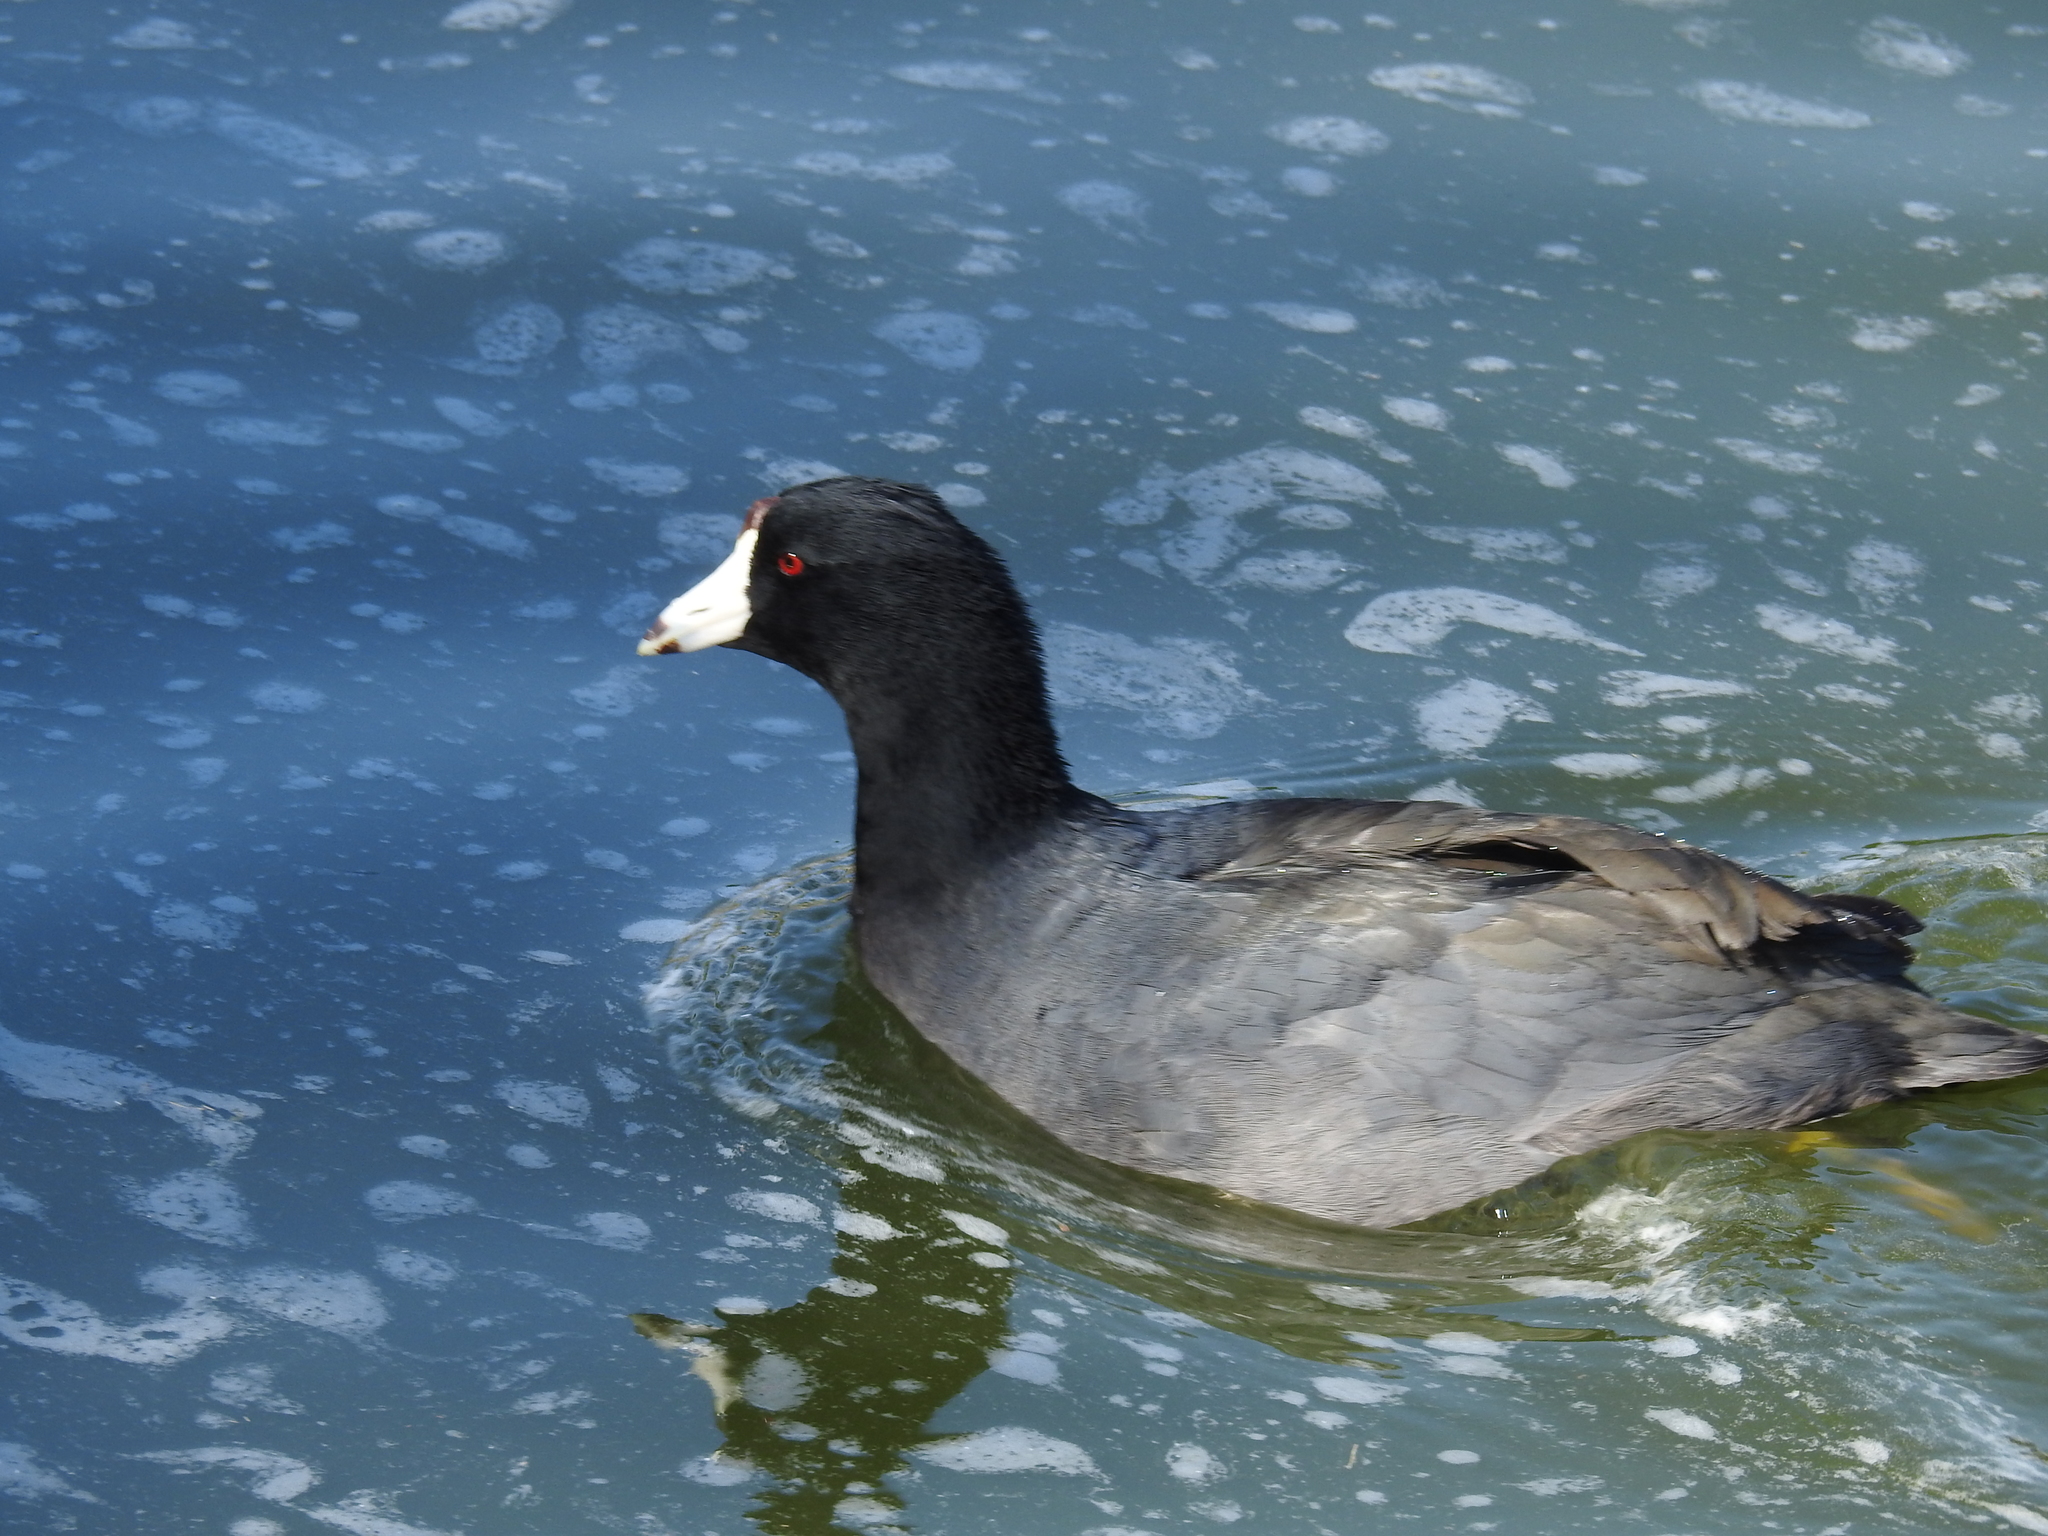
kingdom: Animalia
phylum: Chordata
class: Aves
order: Gruiformes
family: Rallidae
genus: Fulica
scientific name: Fulica americana
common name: American coot
